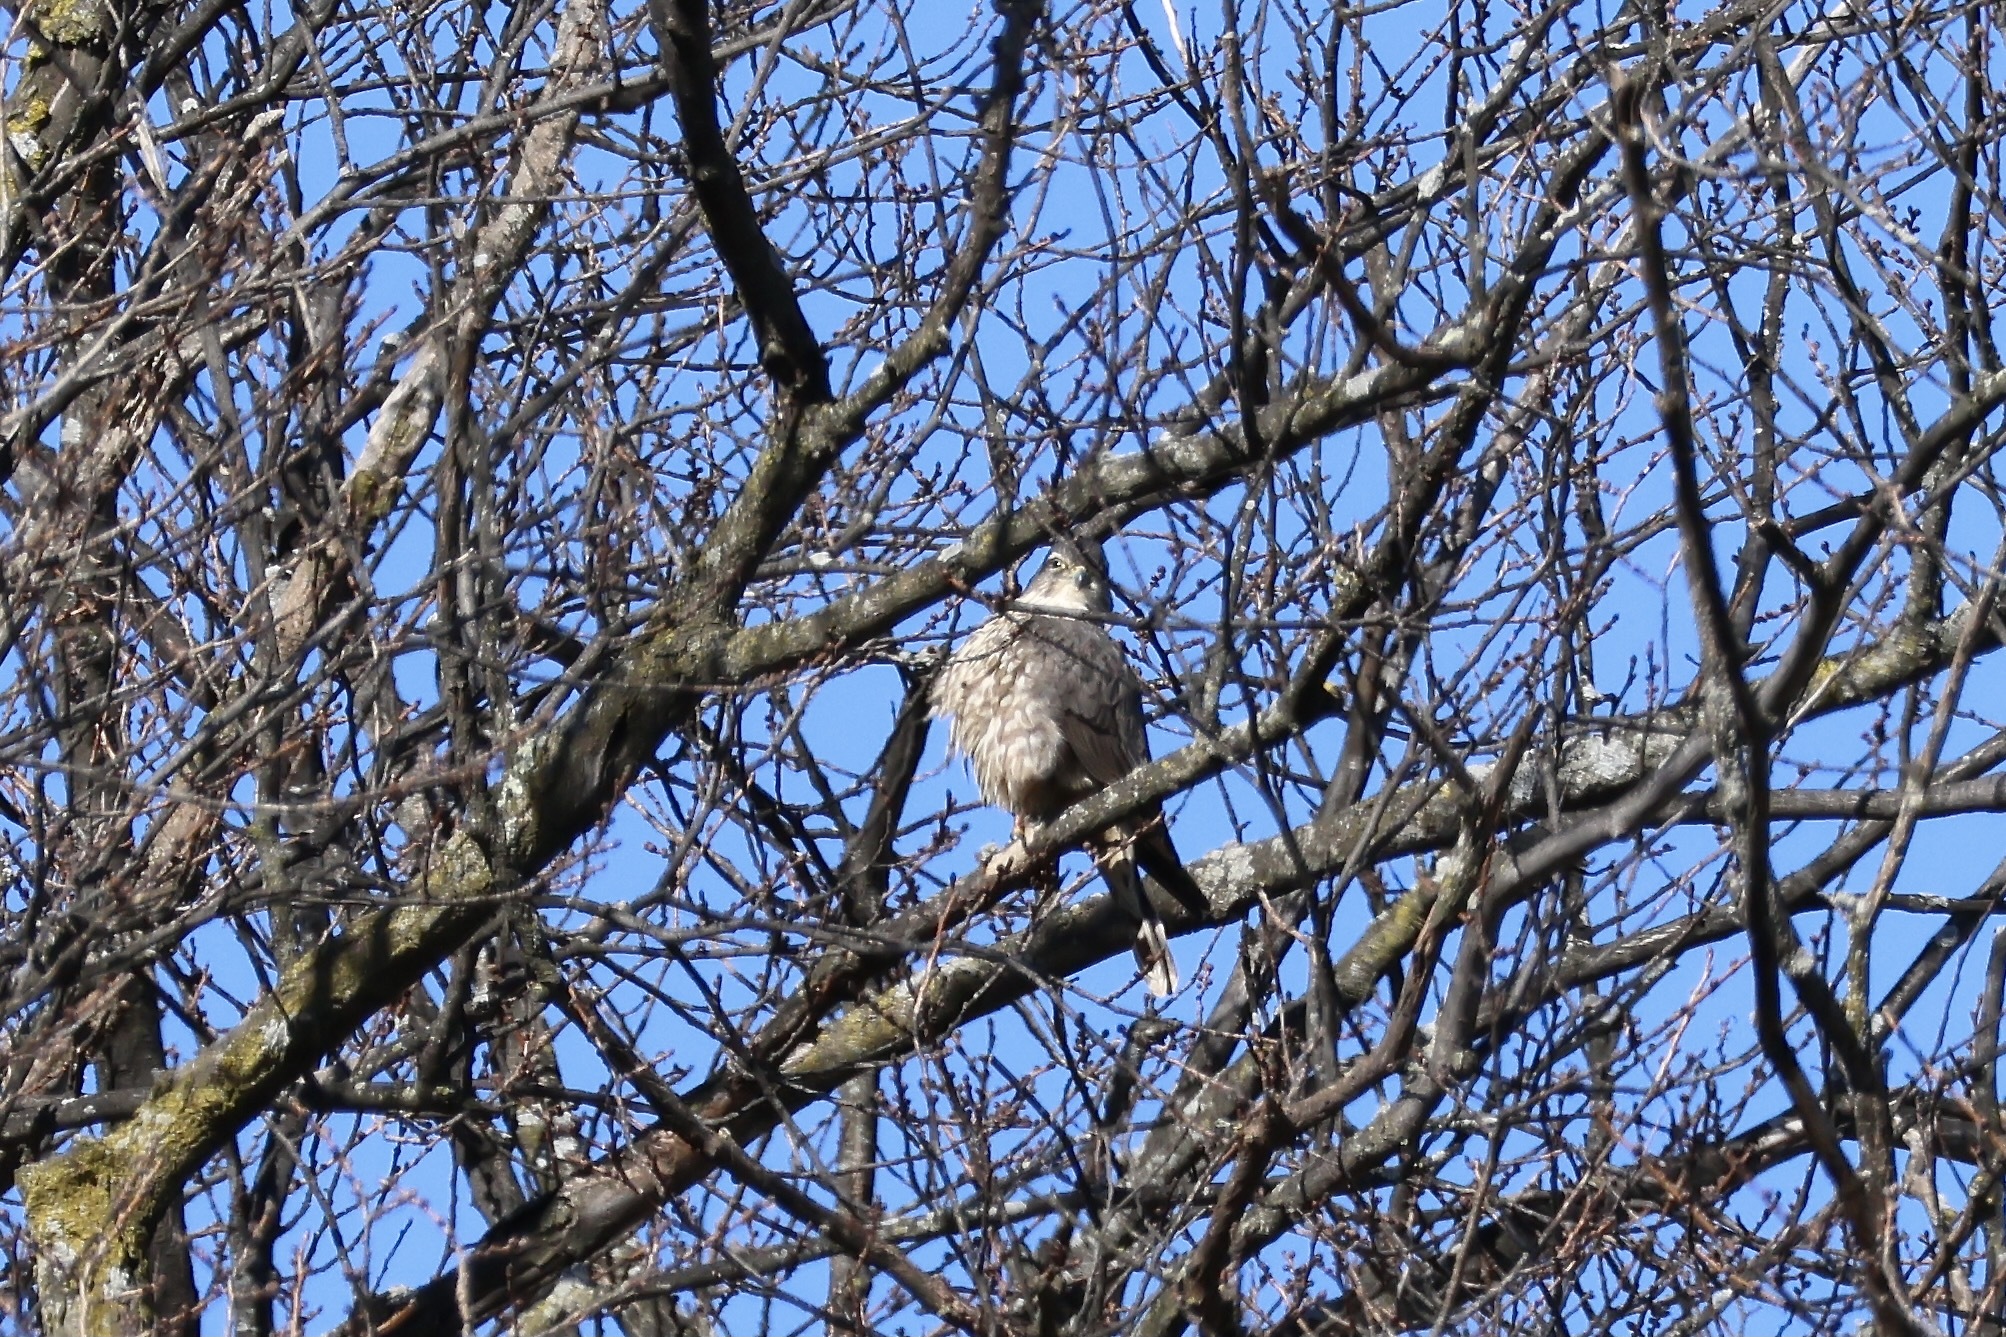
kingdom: Animalia
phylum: Chordata
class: Aves
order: Falconiformes
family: Falconidae
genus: Falco
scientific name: Falco columbarius
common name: Merlin
